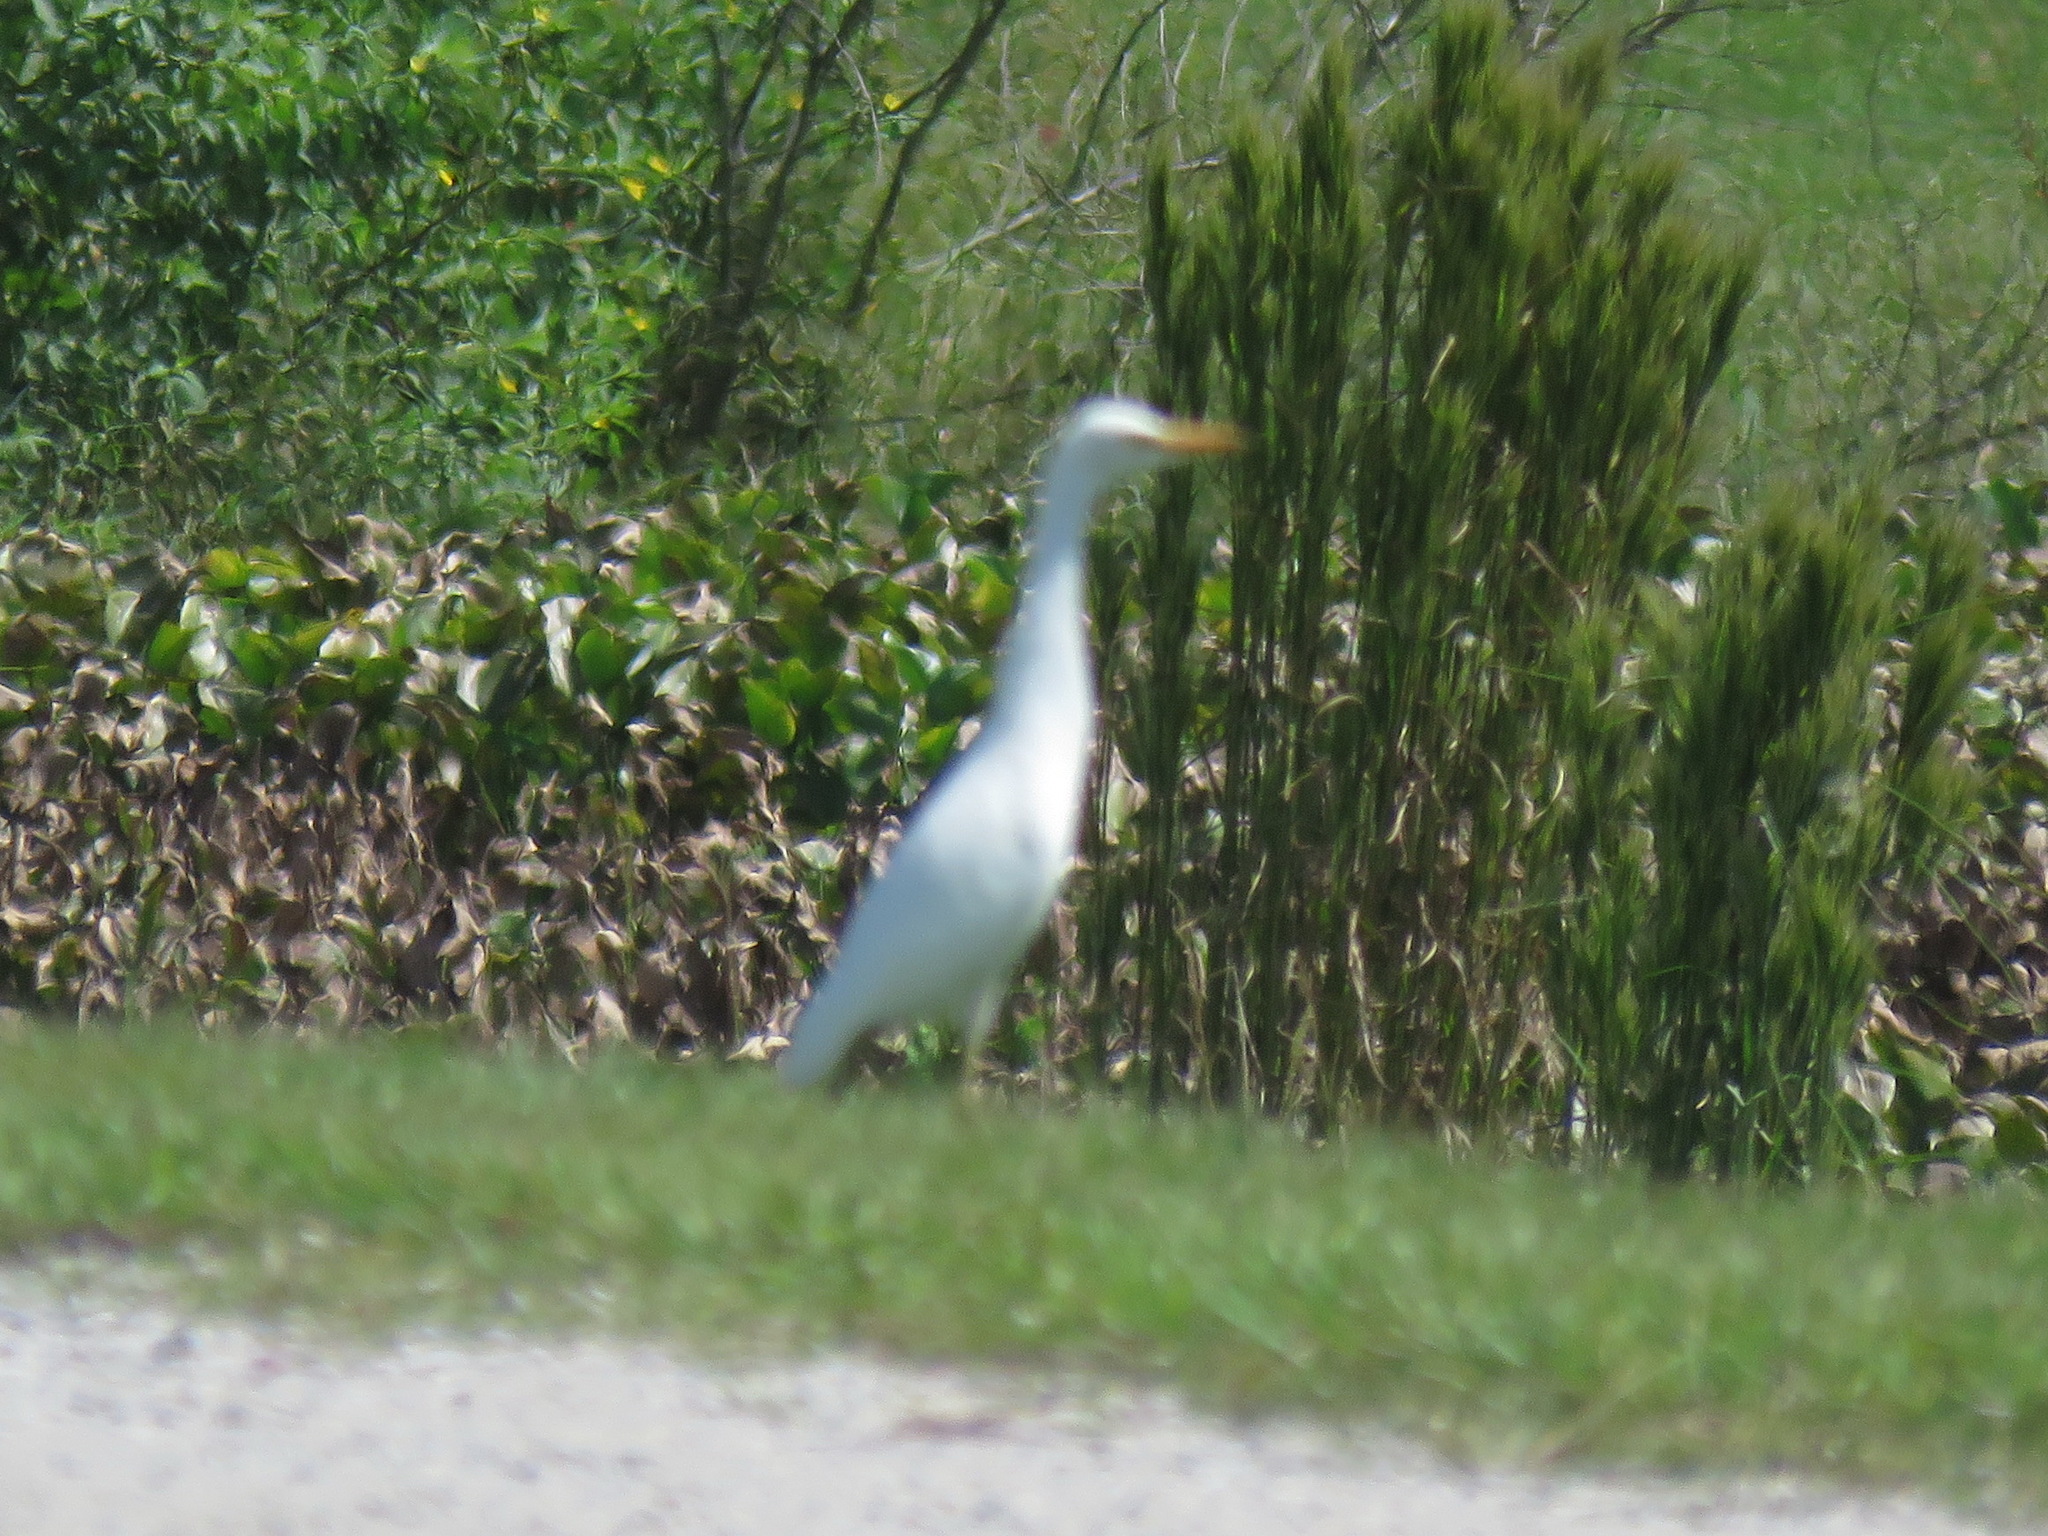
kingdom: Animalia
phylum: Chordata
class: Aves
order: Pelecaniformes
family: Ardeidae
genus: Bubulcus
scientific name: Bubulcus ibis
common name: Cattle egret
